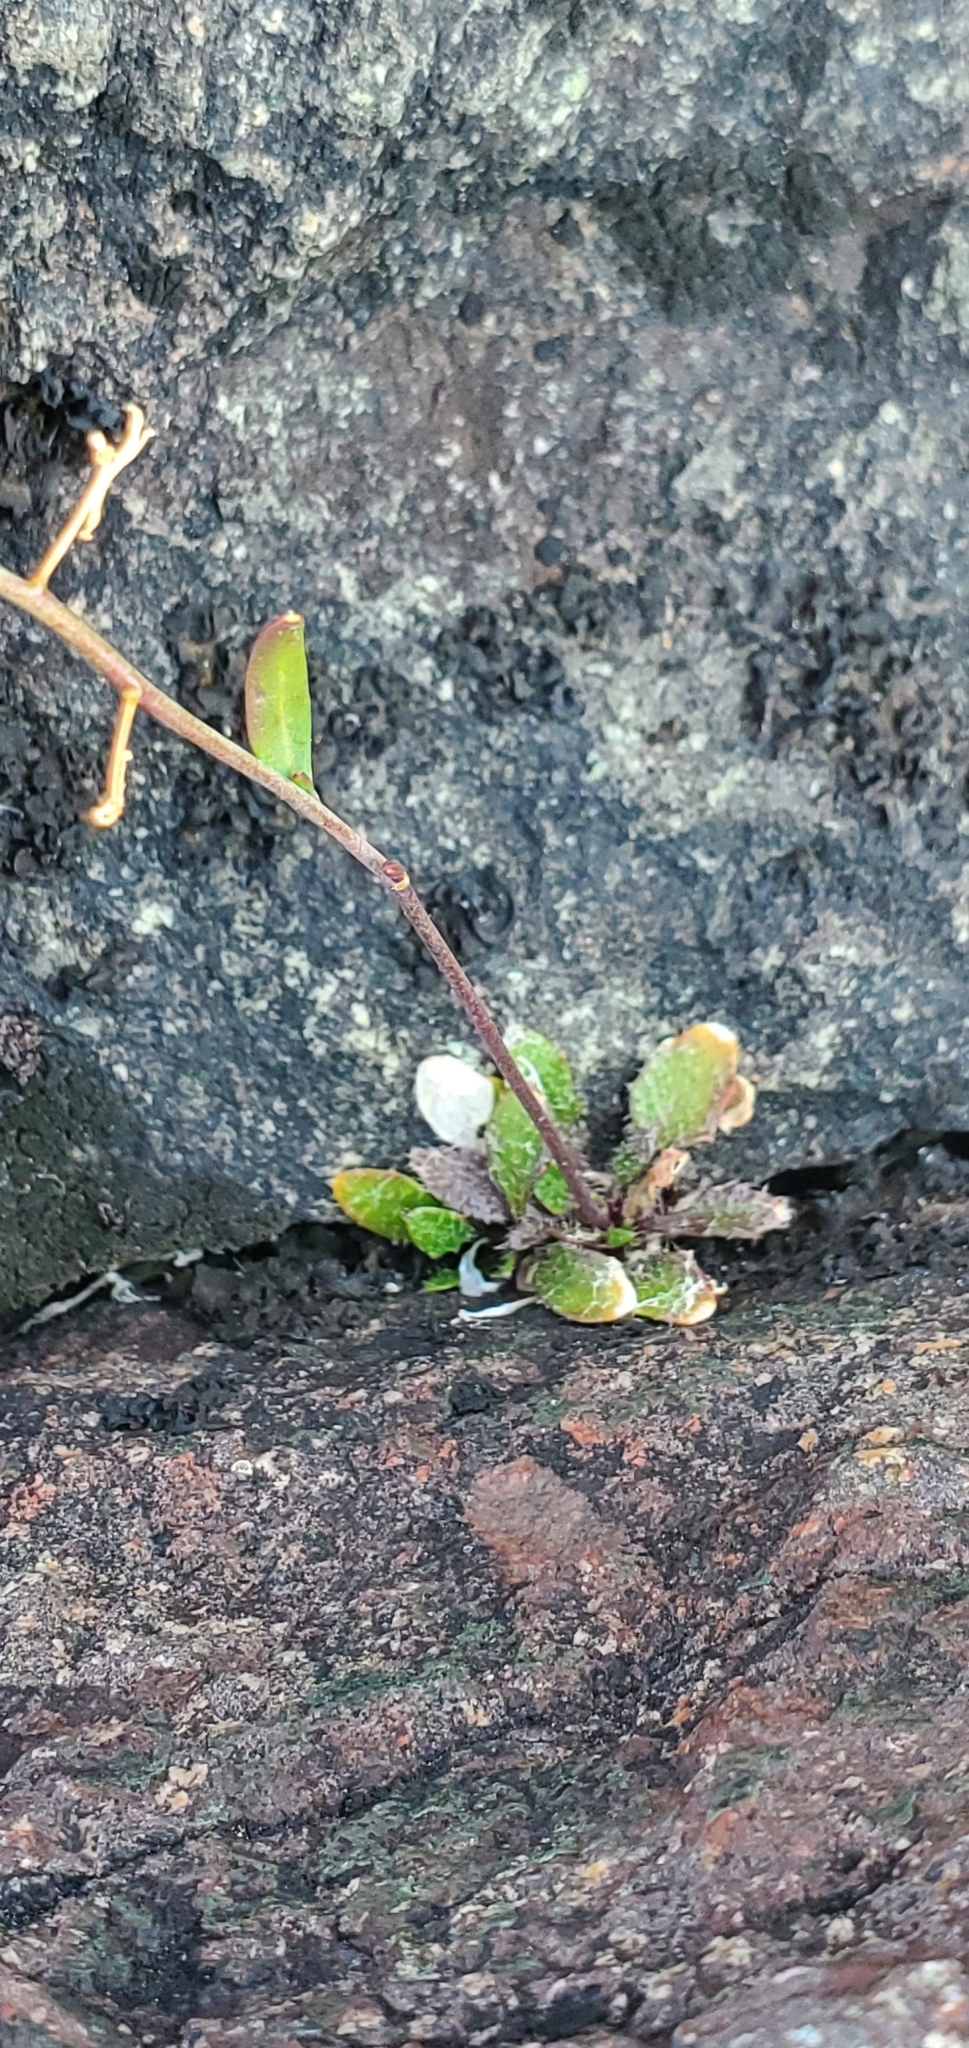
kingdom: Plantae
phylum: Tracheophyta
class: Magnoliopsida
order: Brassicales
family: Brassicaceae
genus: Arabidopsis
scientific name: Arabidopsis lyrata
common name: Lyrate rockcress
